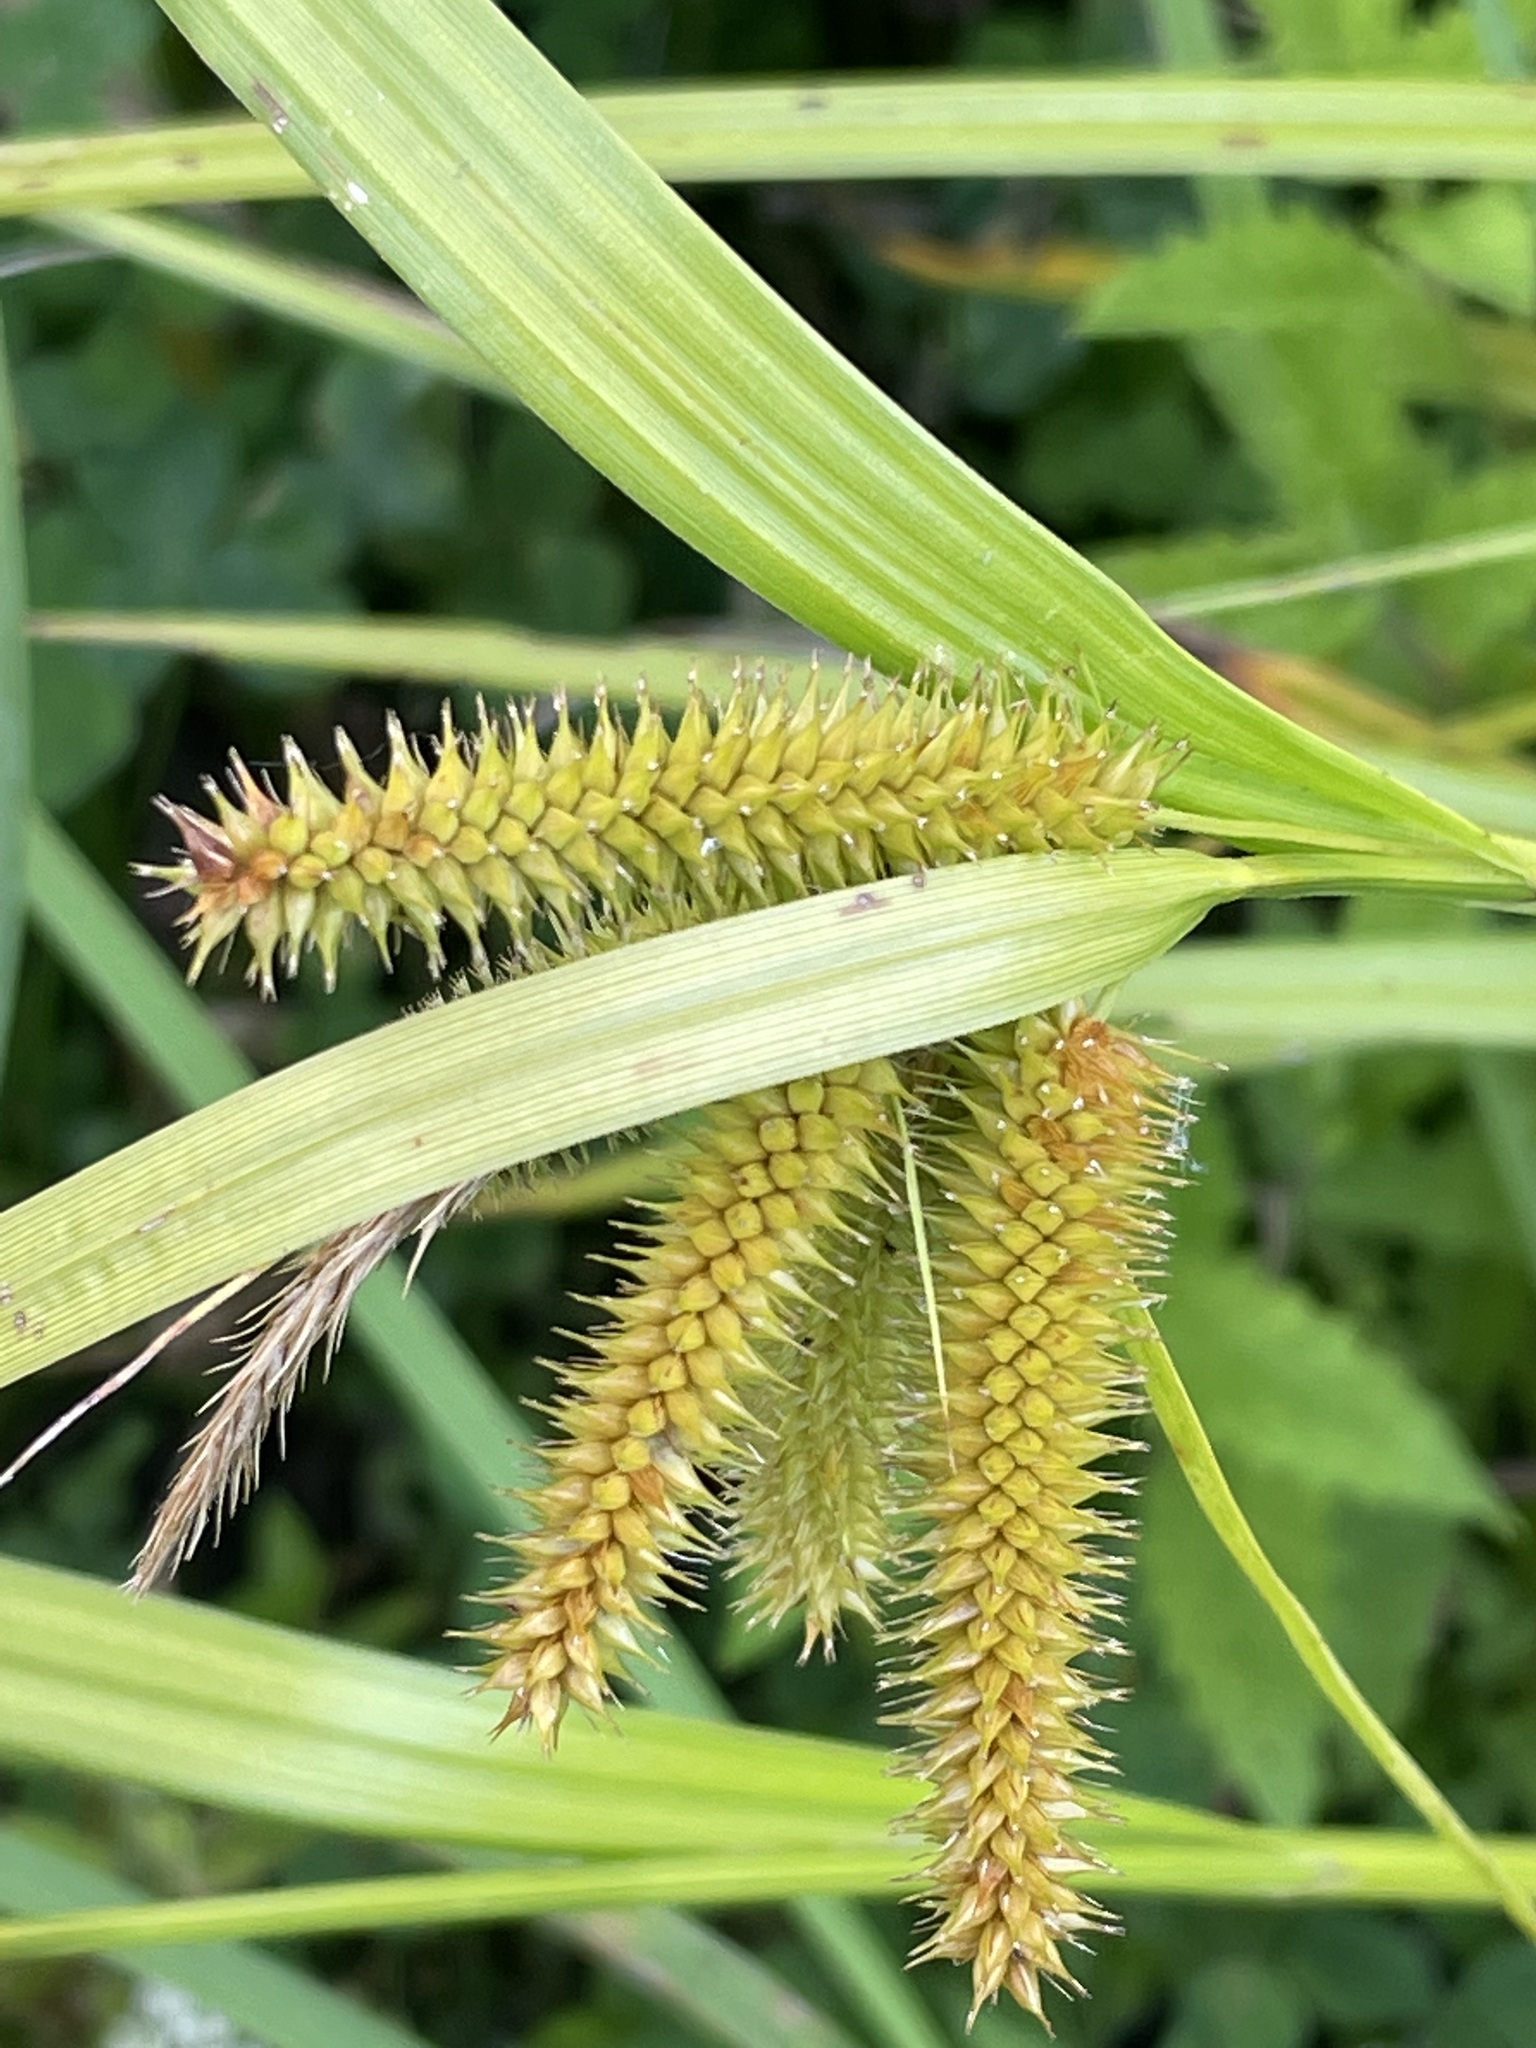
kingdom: Plantae
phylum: Tracheophyta
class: Liliopsida
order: Poales
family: Cyperaceae
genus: Carex
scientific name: Carex pseudocyperus
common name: Cyperus sedge
